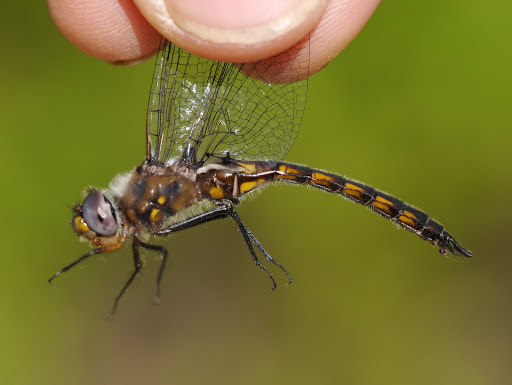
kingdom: Animalia
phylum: Arthropoda
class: Insecta
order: Odonata
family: Corduliidae
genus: Epitheca
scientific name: Epitheca cynosura
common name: Common baskettail
